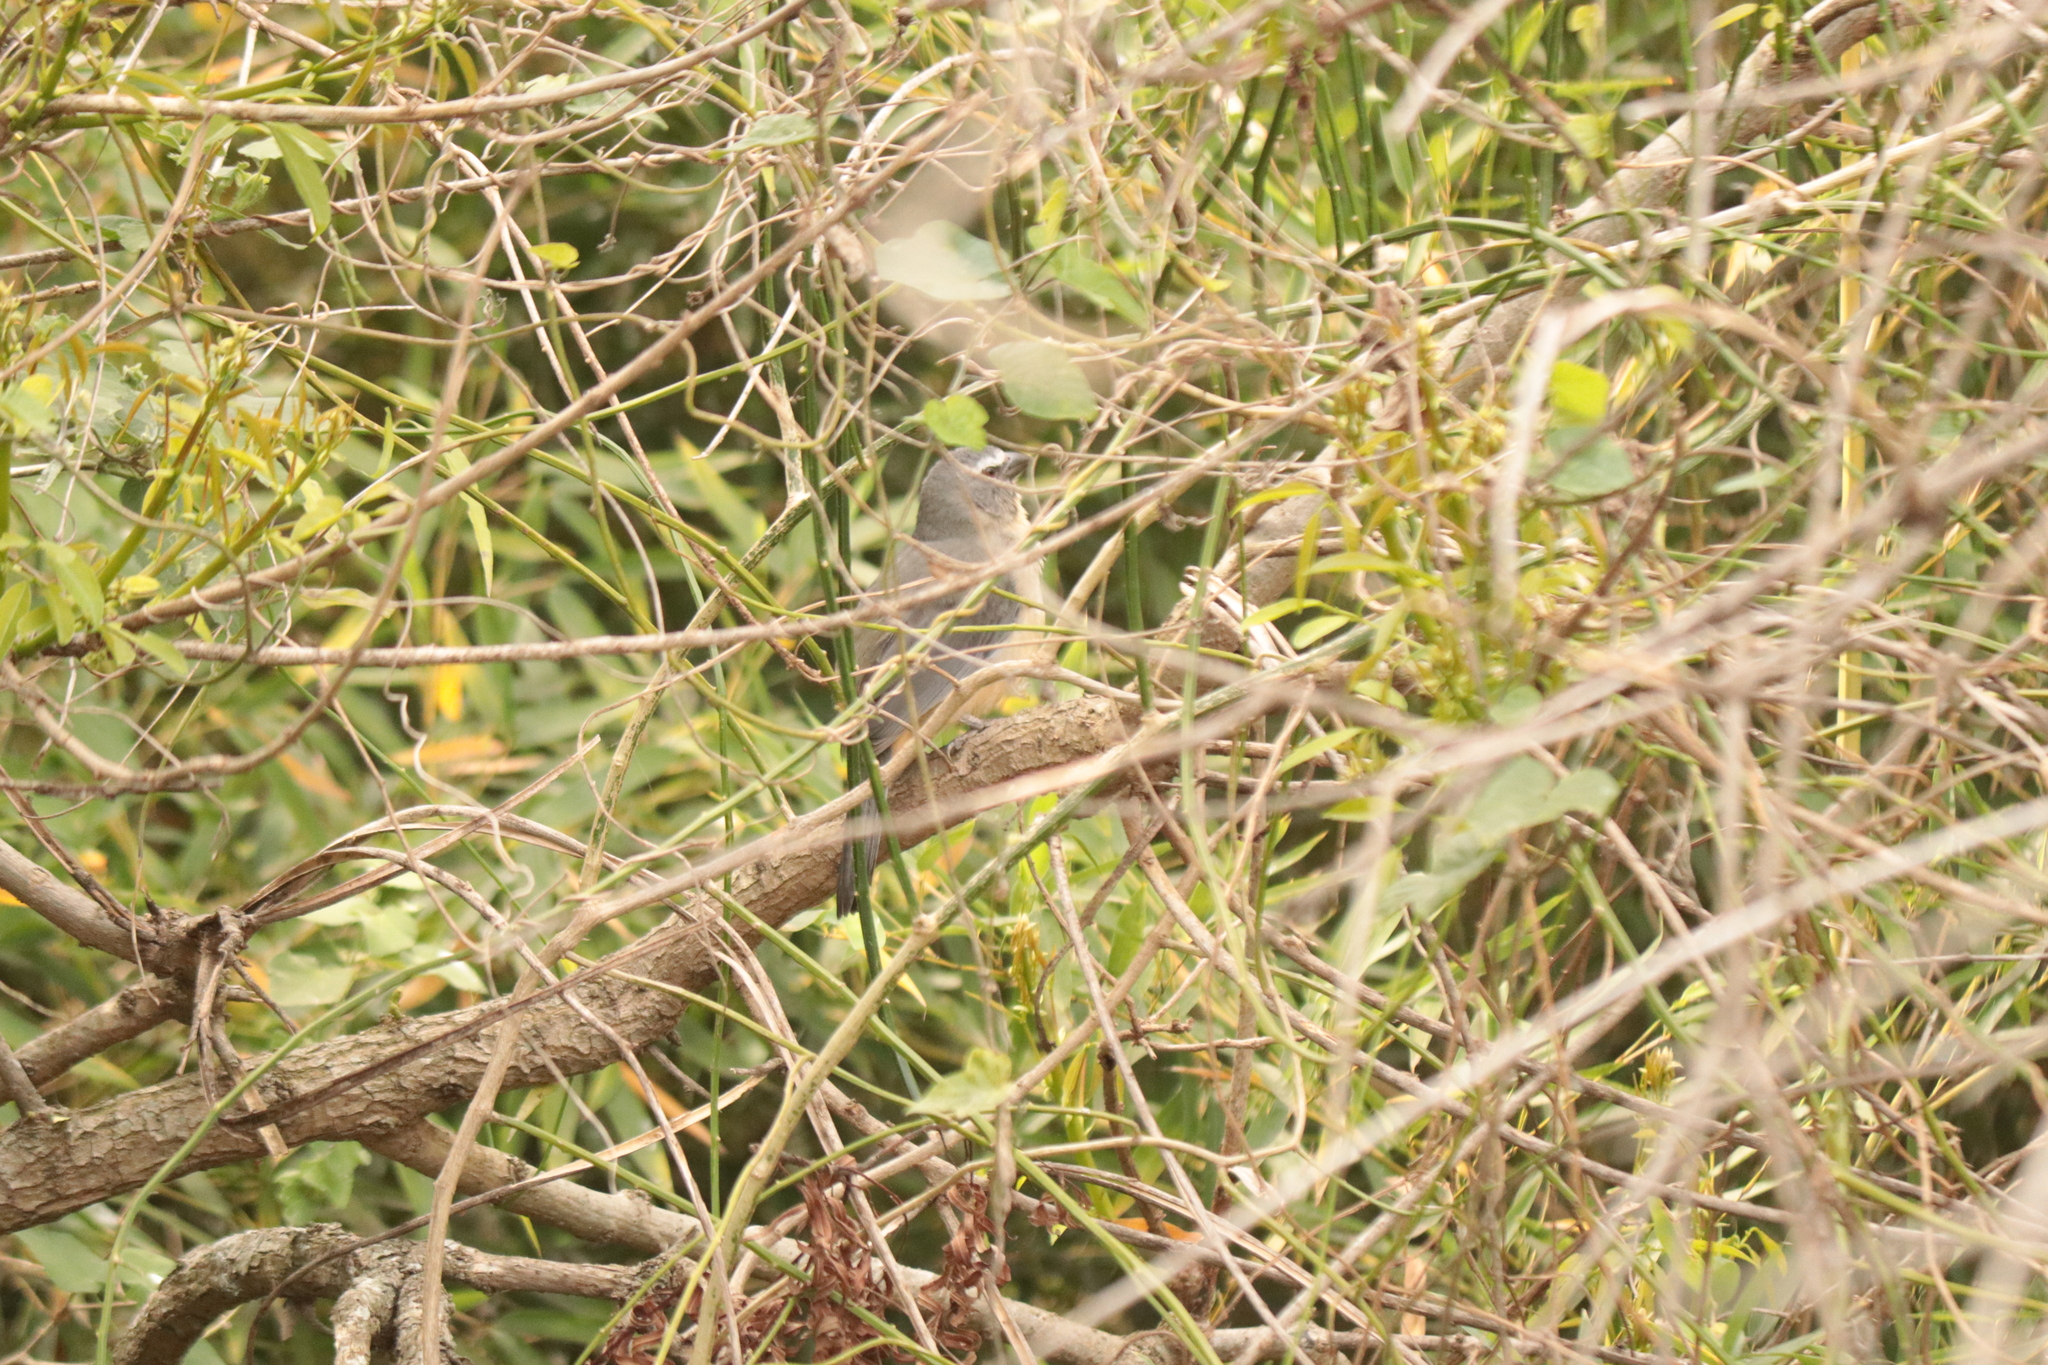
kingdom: Animalia
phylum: Chordata
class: Aves
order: Passeriformes
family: Thraupidae
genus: Saltator
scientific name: Saltator coerulescens
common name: Grayish saltator
